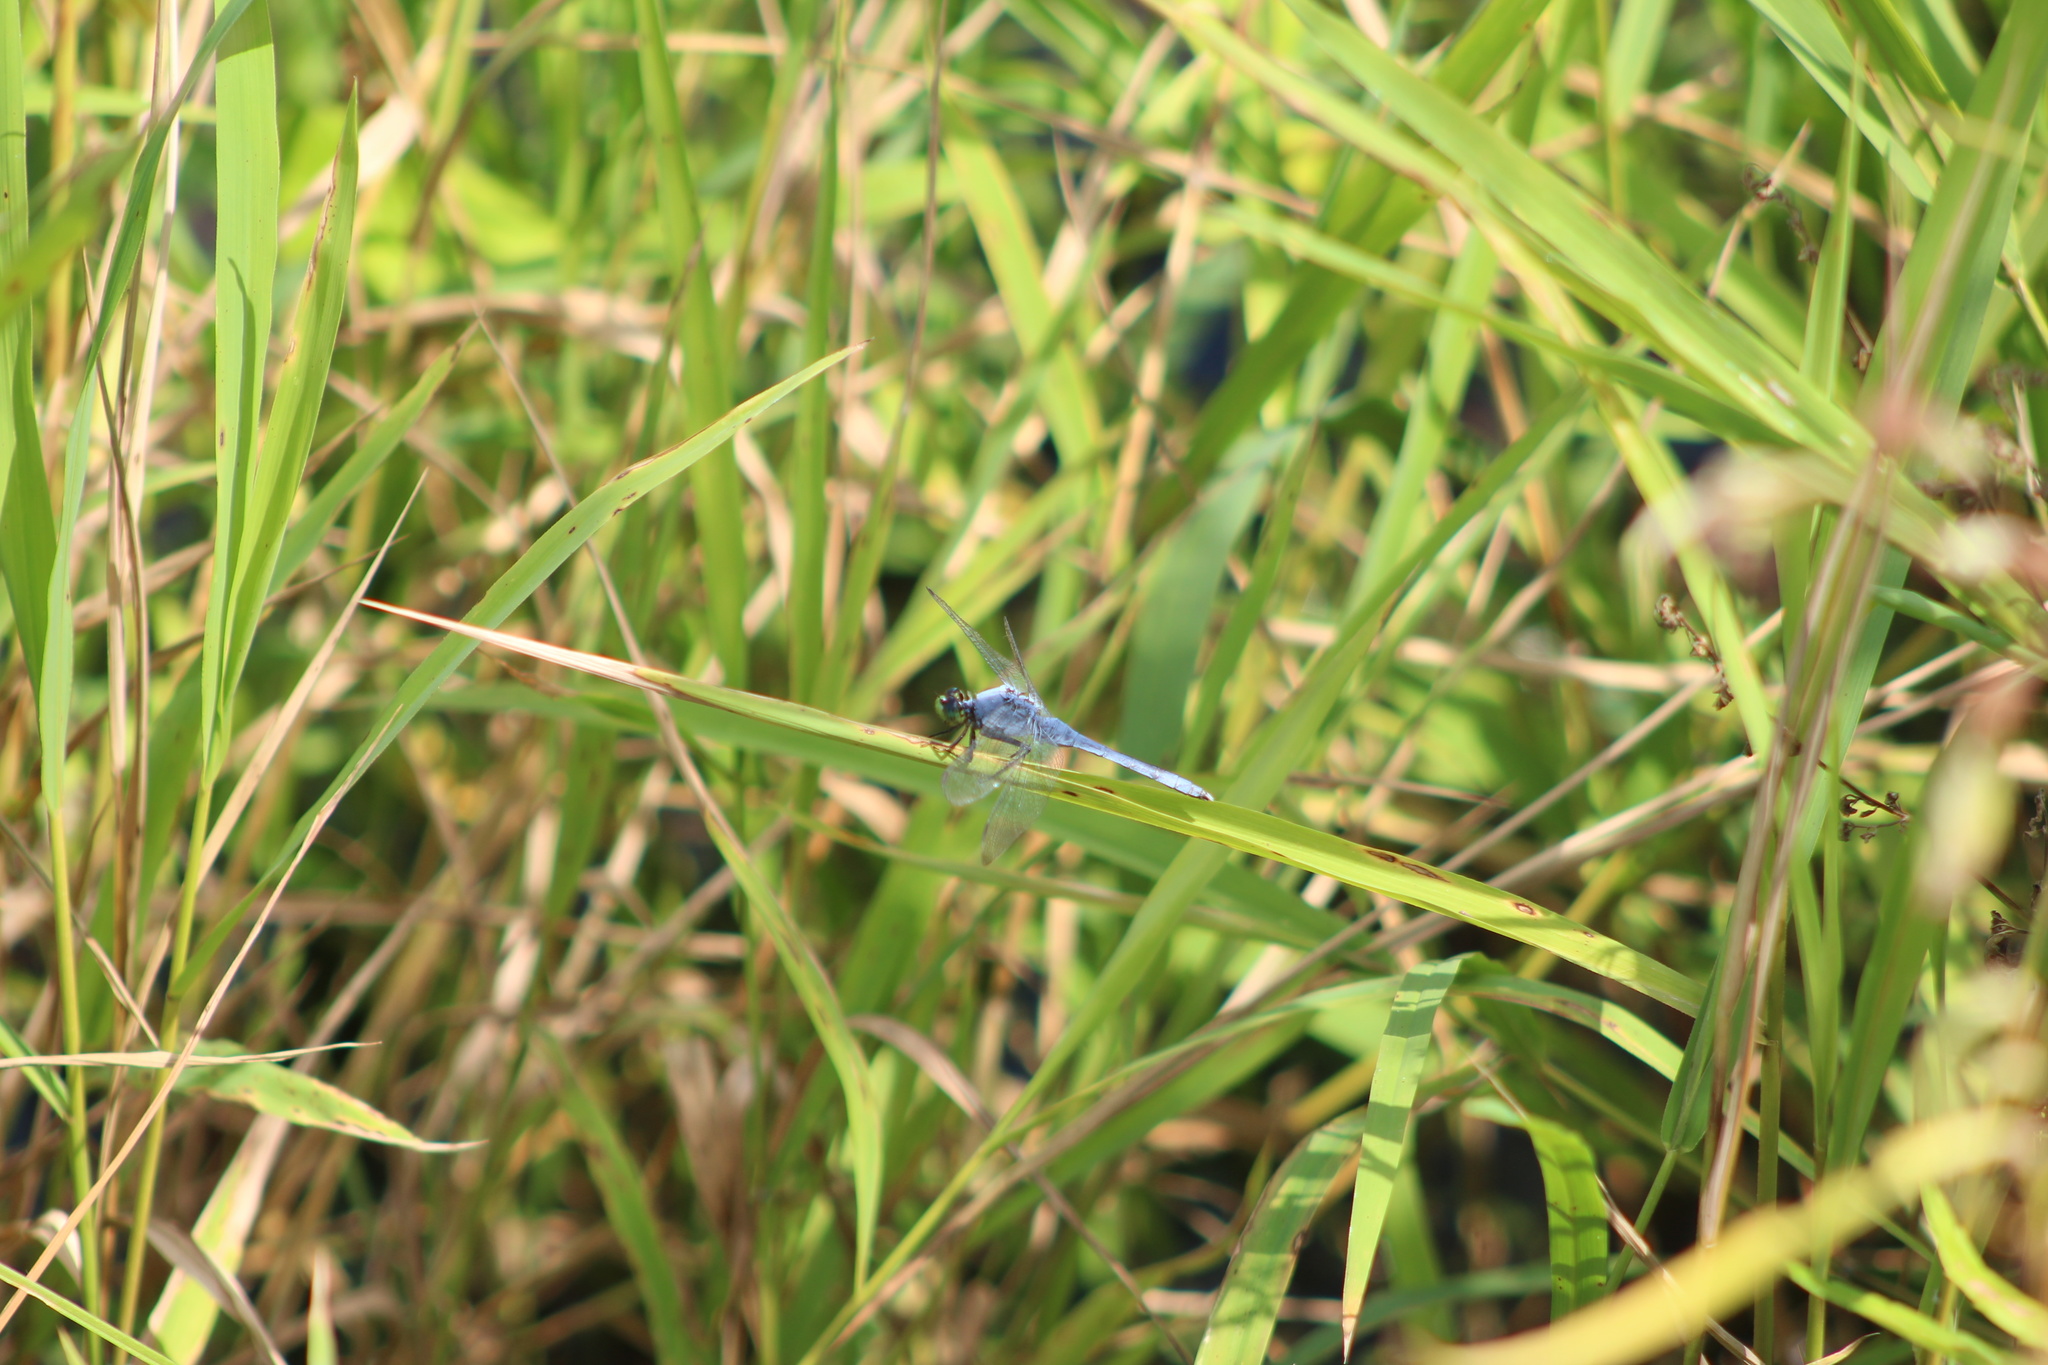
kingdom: Animalia
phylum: Arthropoda
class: Insecta
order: Odonata
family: Libellulidae
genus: Erythemis
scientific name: Erythemis simplicicollis
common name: Eastern pondhawk
